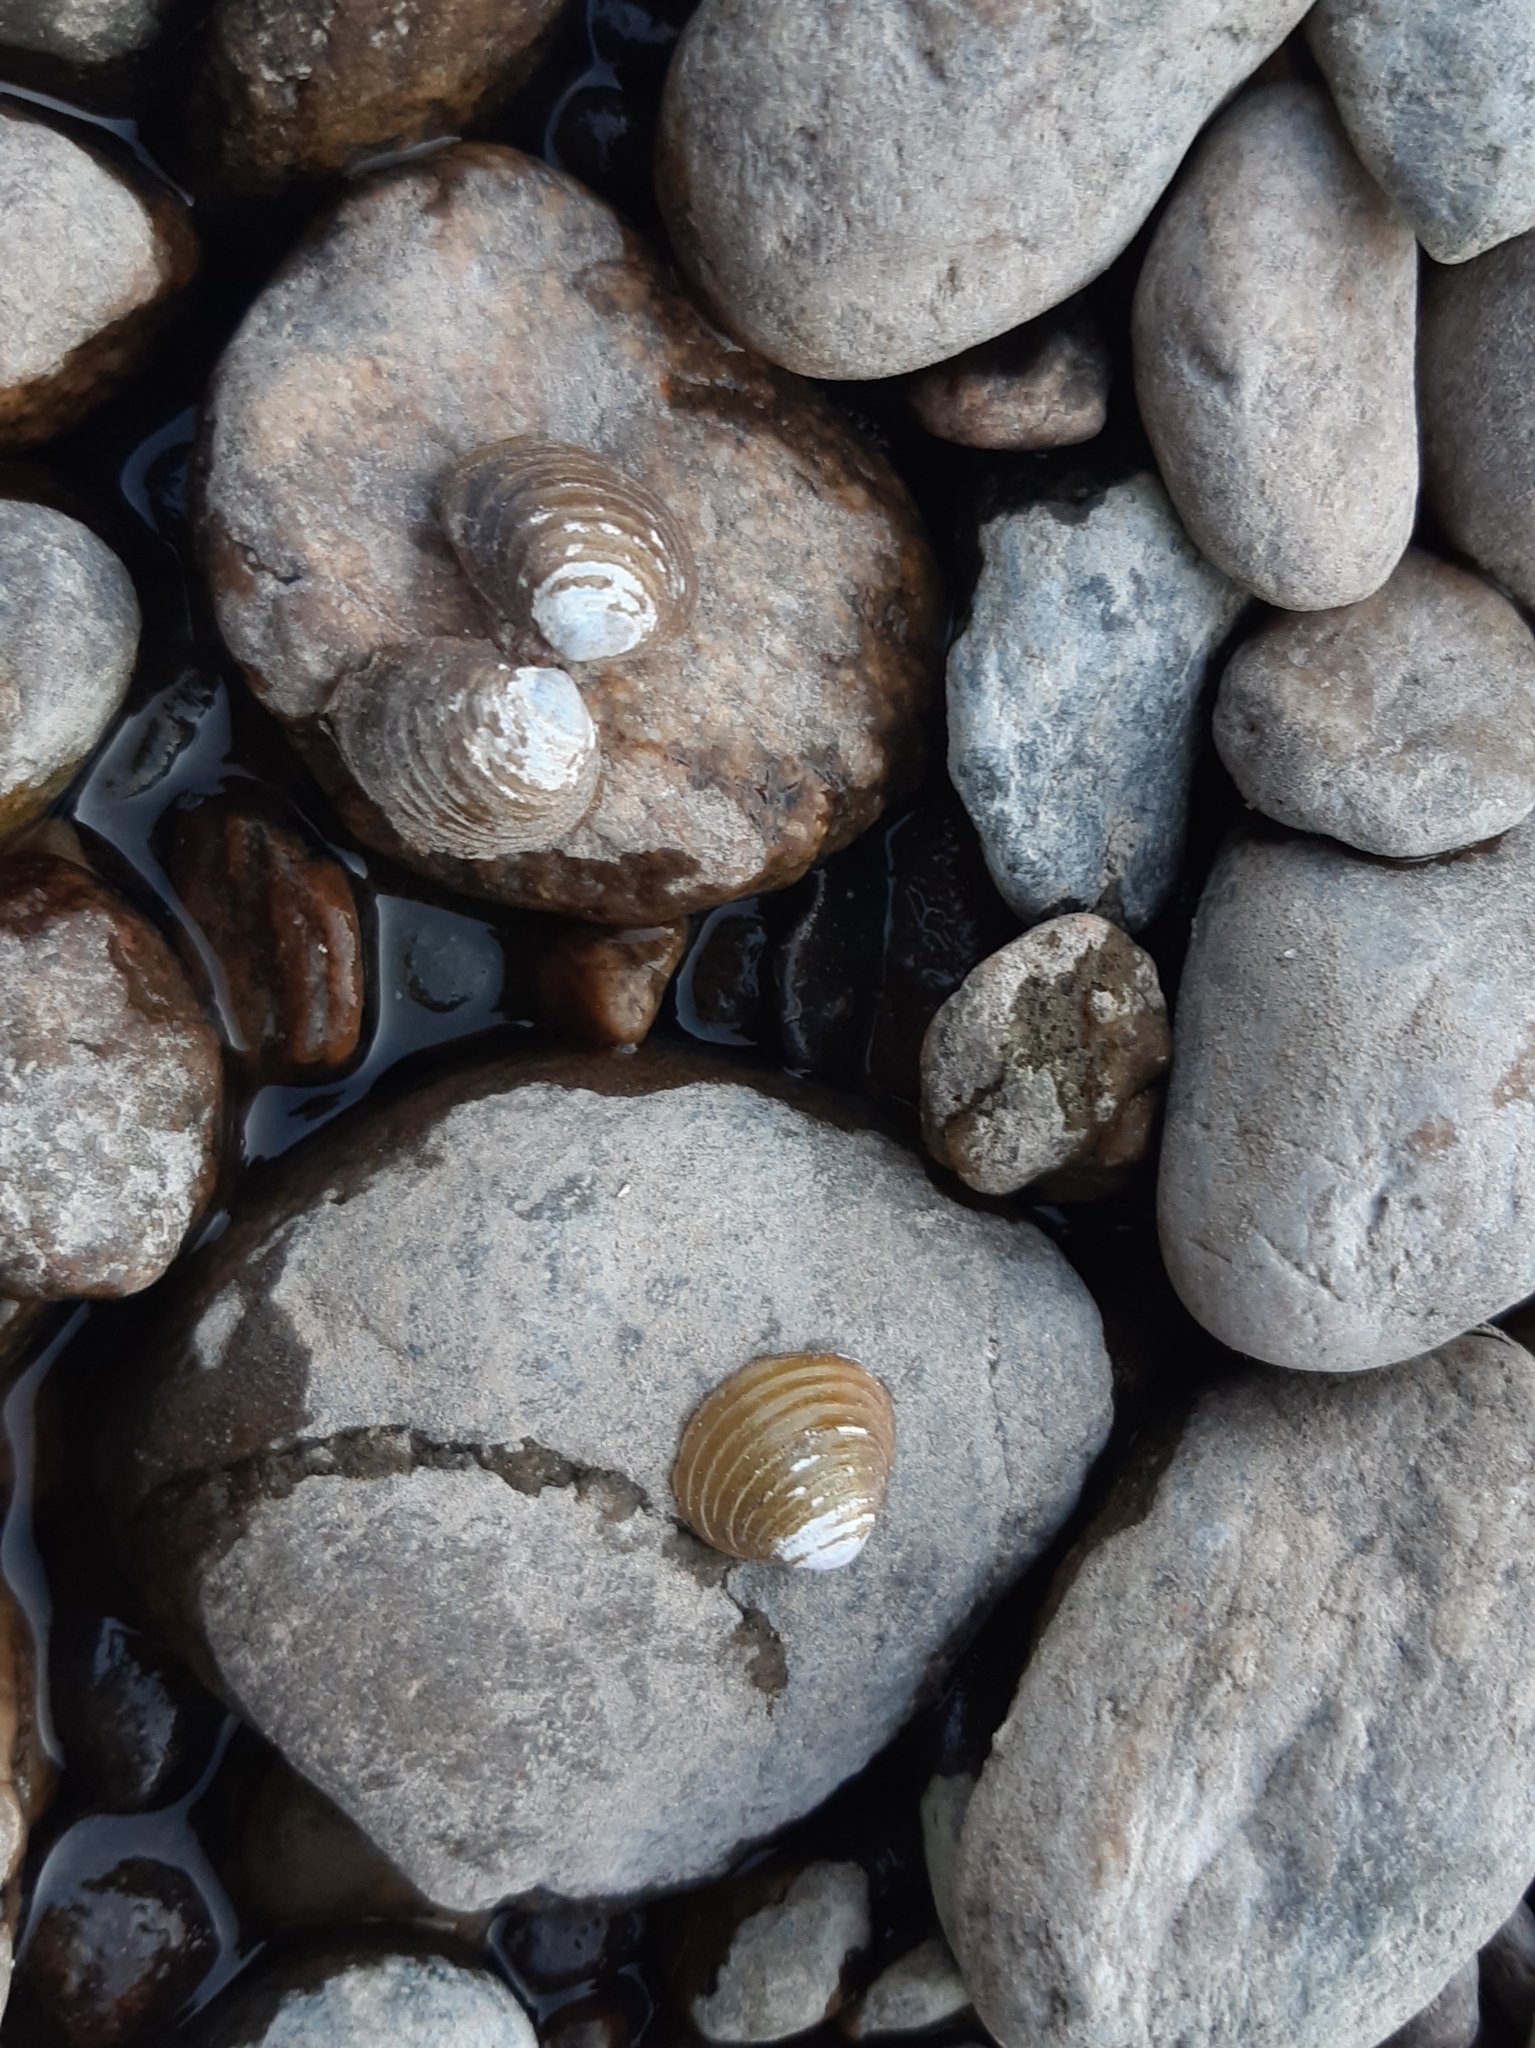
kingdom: Animalia
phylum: Mollusca
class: Bivalvia
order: Venerida
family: Cyrenidae
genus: Corbicula
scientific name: Corbicula fluminea
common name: Asian clam
